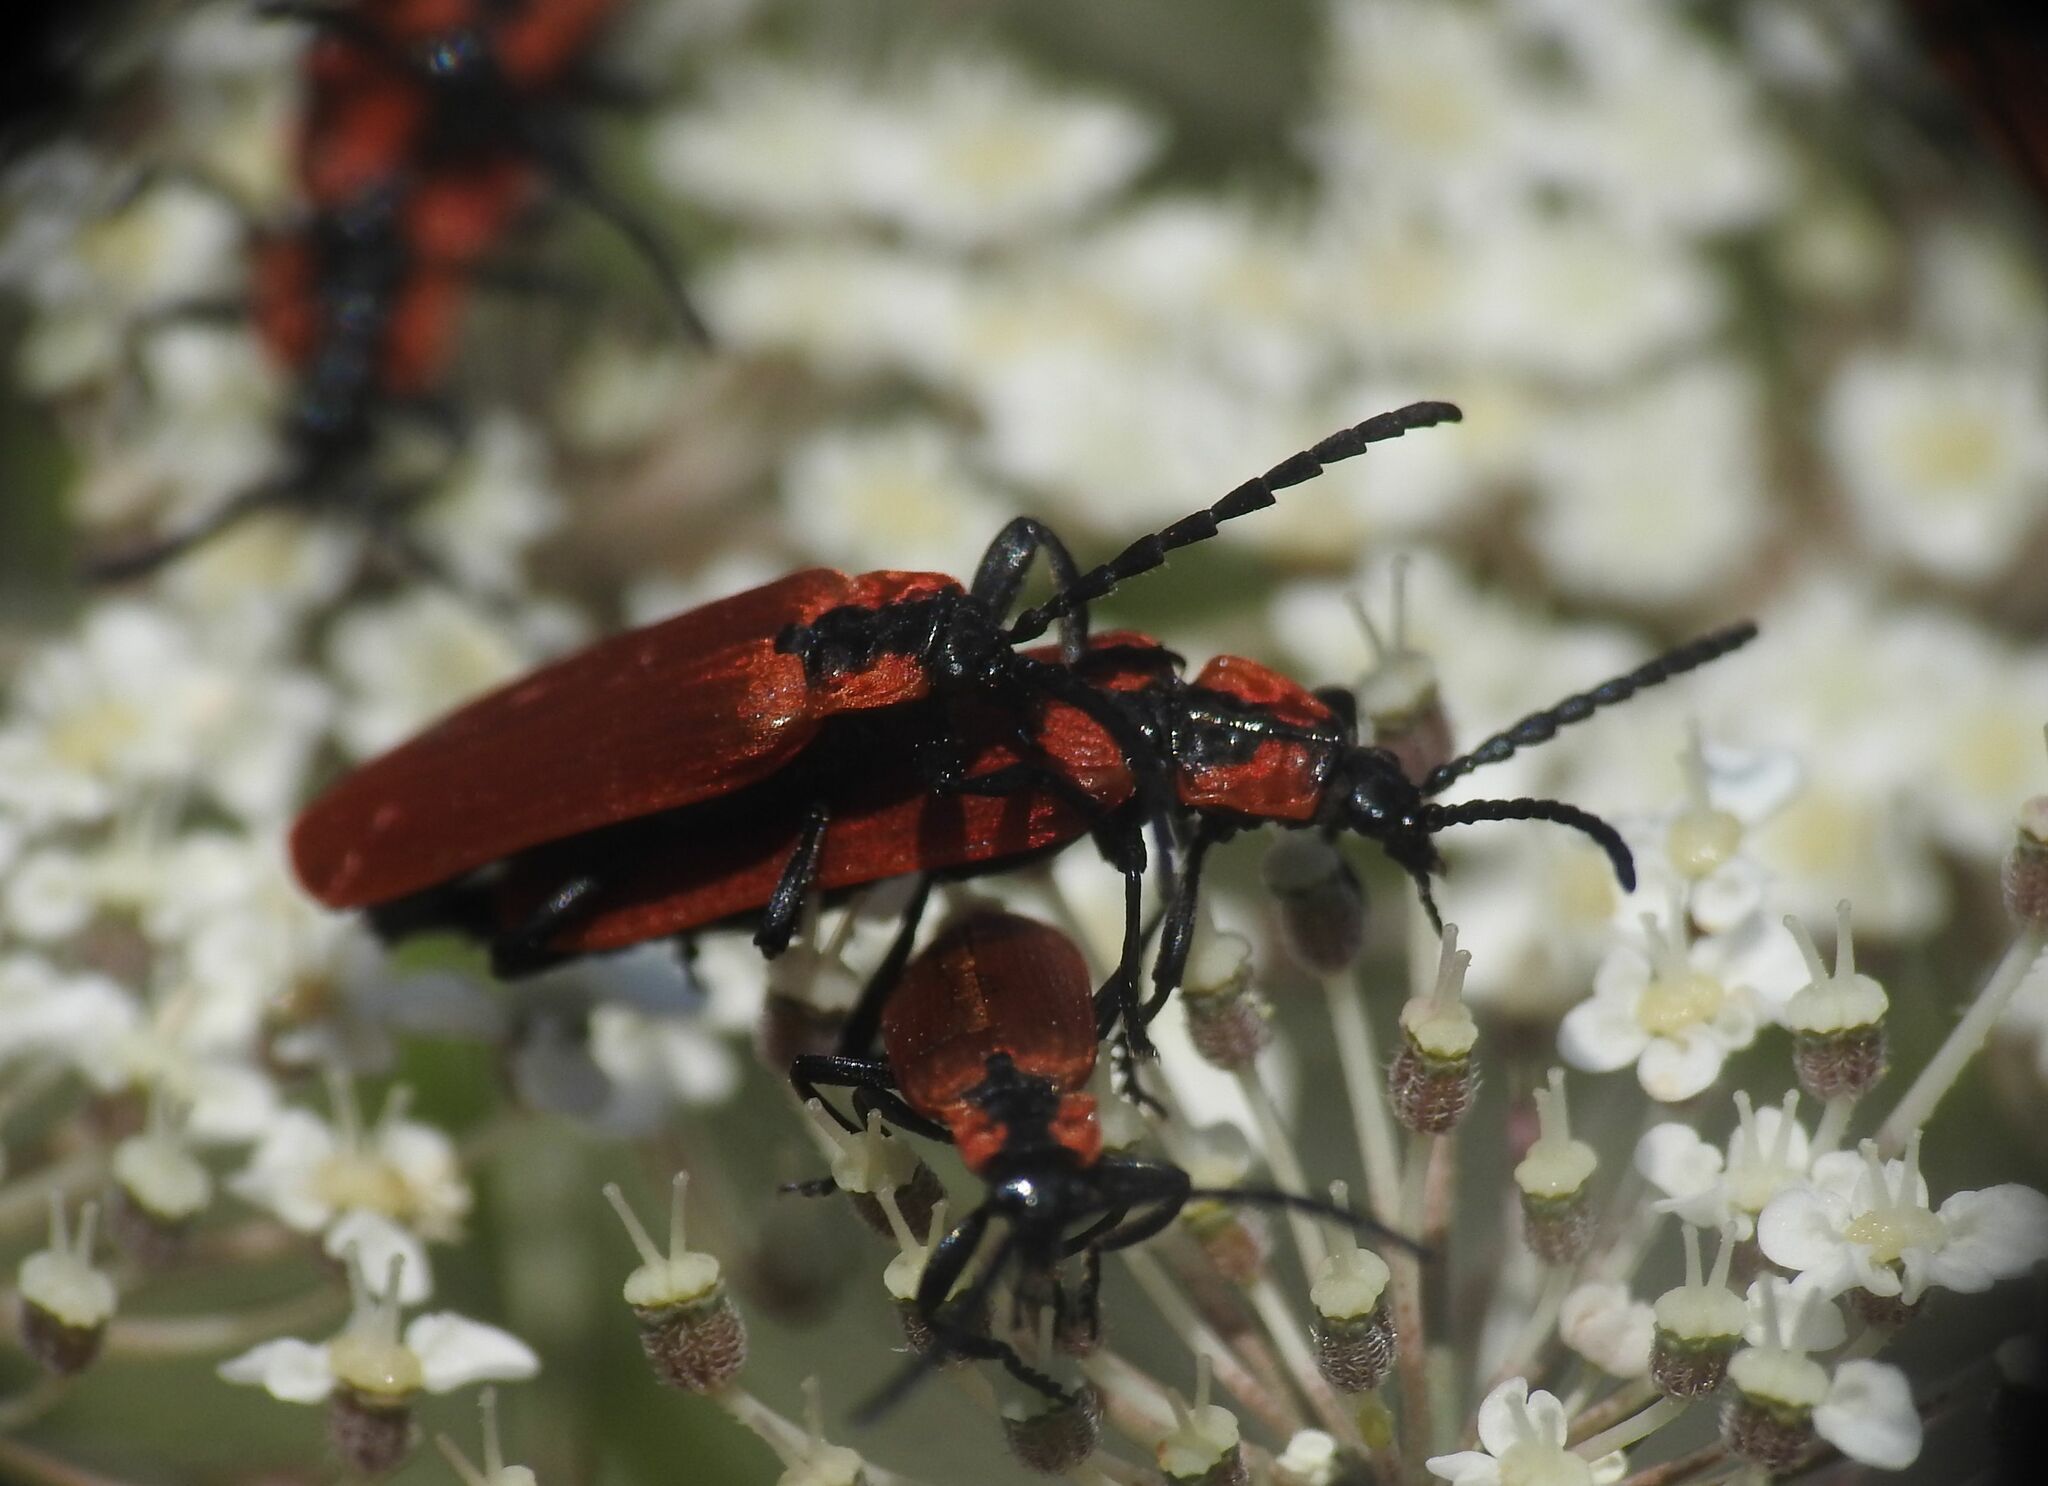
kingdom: Animalia
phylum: Arthropoda
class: Insecta
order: Coleoptera
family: Lycidae
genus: Lygistopterus
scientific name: Lygistopterus sanguineus
